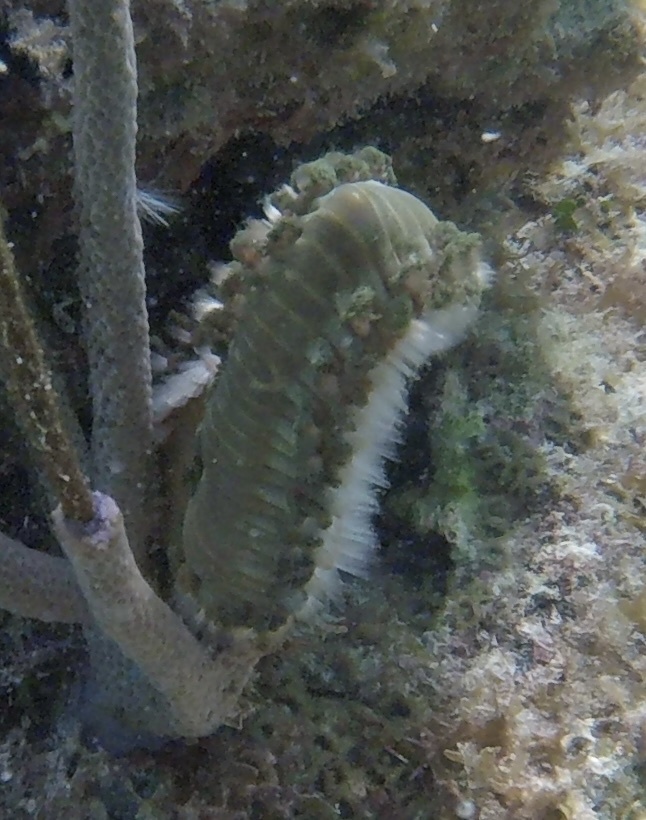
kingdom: Animalia
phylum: Annelida
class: Polychaeta
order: Amphinomida
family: Amphinomidae
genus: Hermodice
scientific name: Hermodice carunculata
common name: Bearded fireworm
